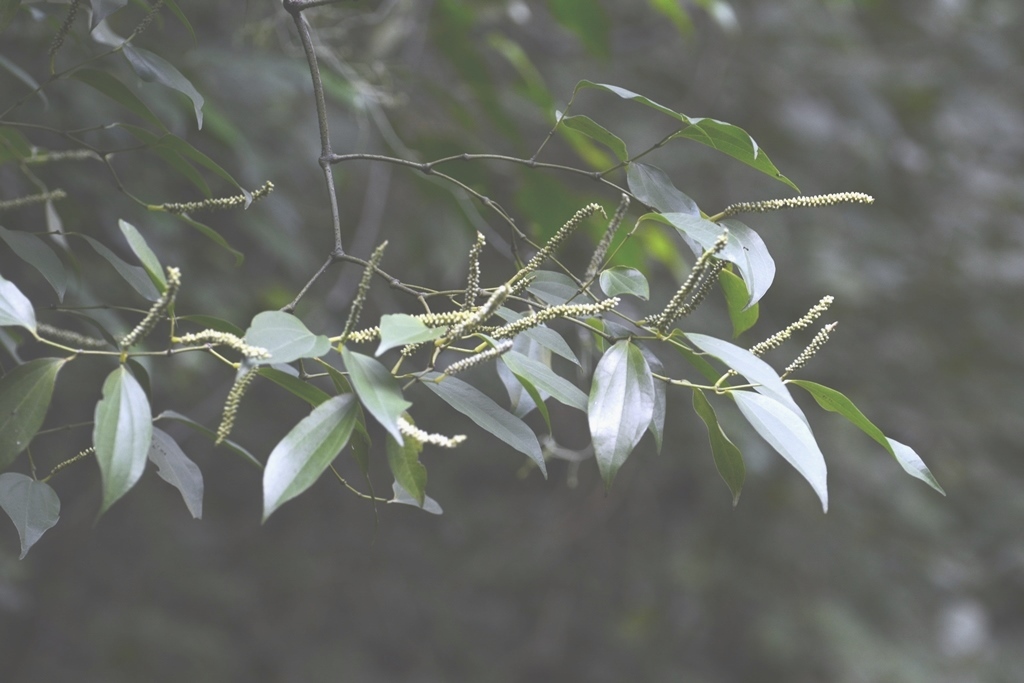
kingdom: Plantae
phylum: Tracheophyta
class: Magnoliopsida
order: Piperales
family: Piperaceae
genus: Piper
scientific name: Piper amalago
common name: Pepper-elder
